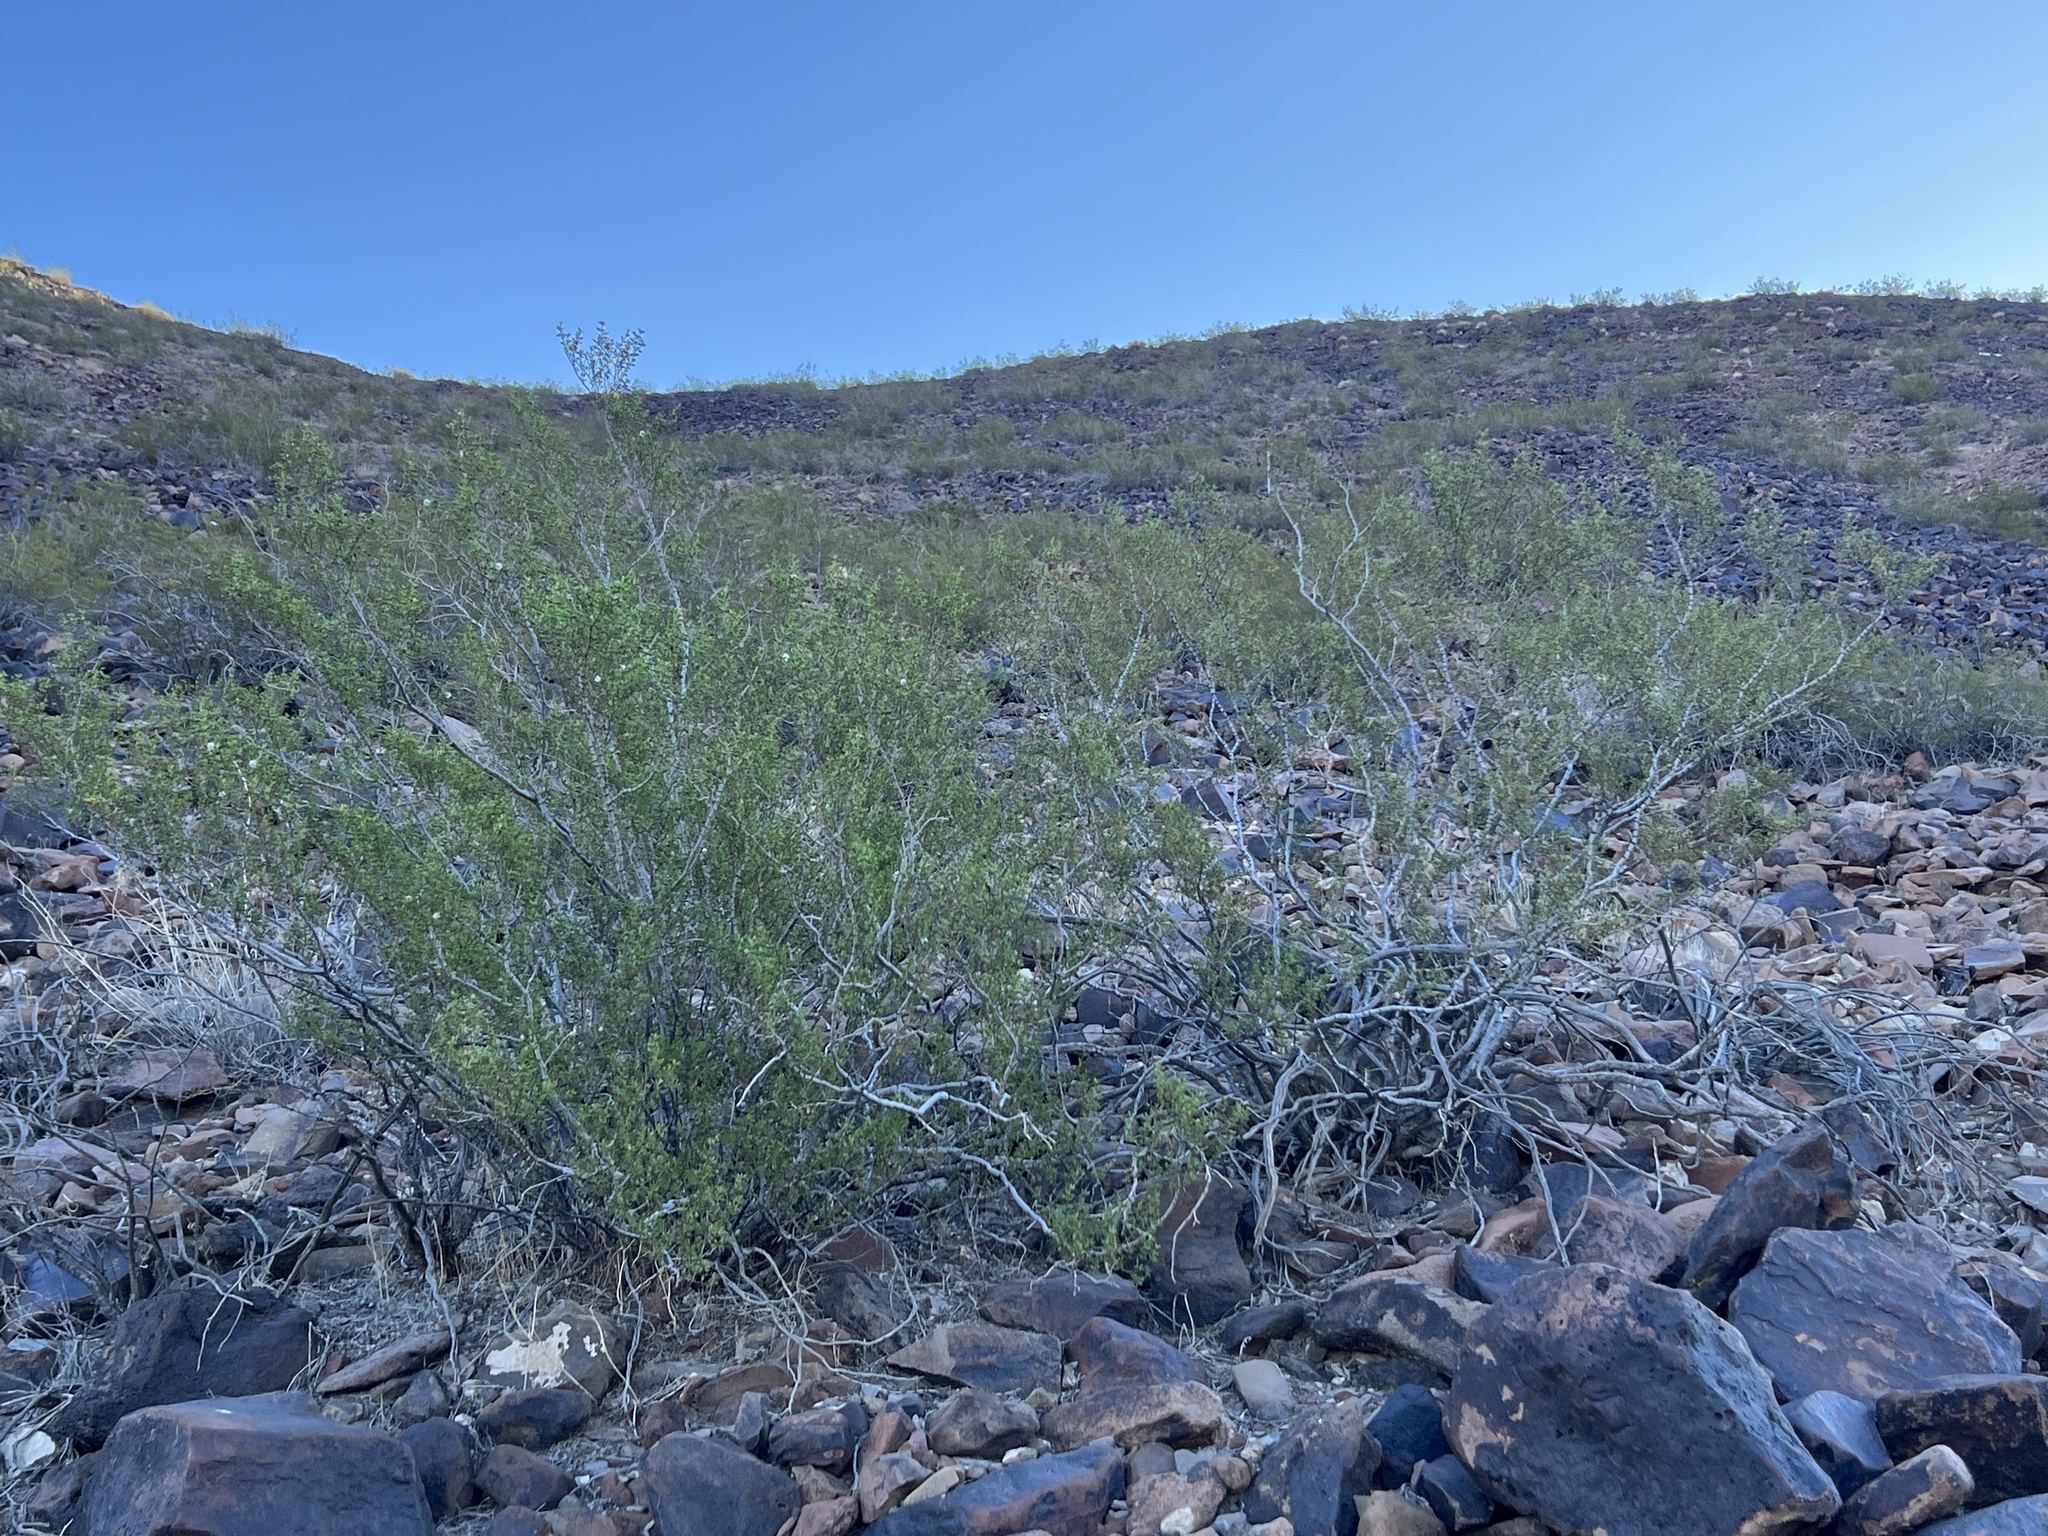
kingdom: Plantae
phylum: Tracheophyta
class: Magnoliopsida
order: Zygophyllales
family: Zygophyllaceae
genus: Larrea
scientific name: Larrea tridentata
